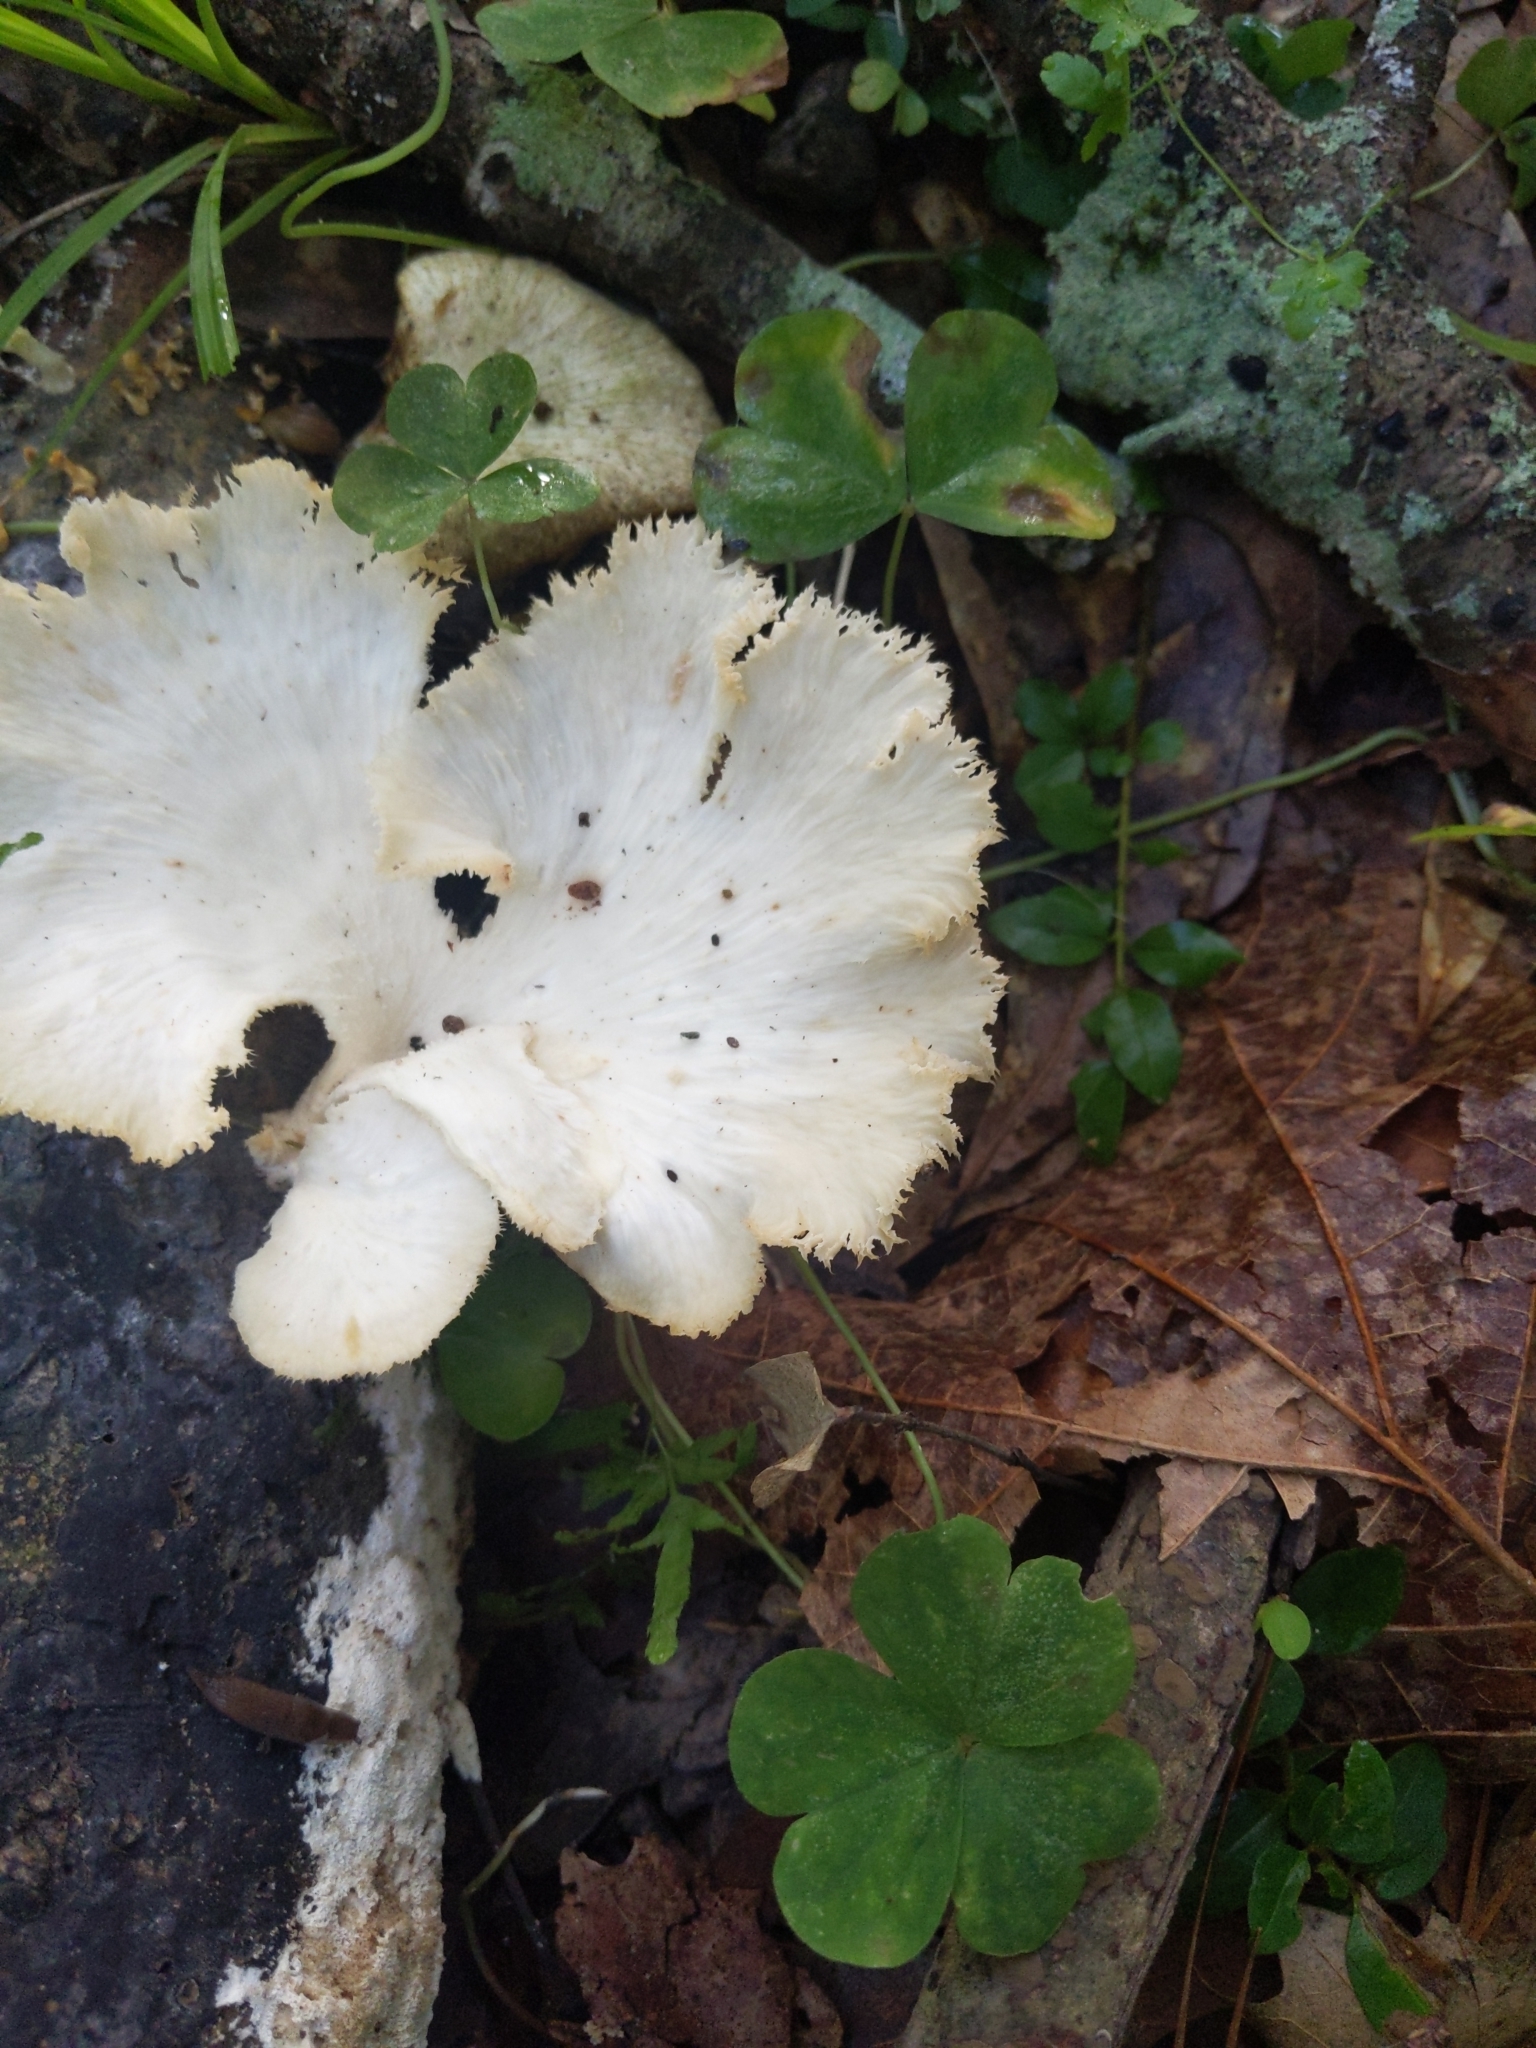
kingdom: Fungi
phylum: Basidiomycota
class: Agaricomycetes
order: Polyporales
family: Polyporaceae
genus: Favolus
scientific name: Favolus tenuiculus
